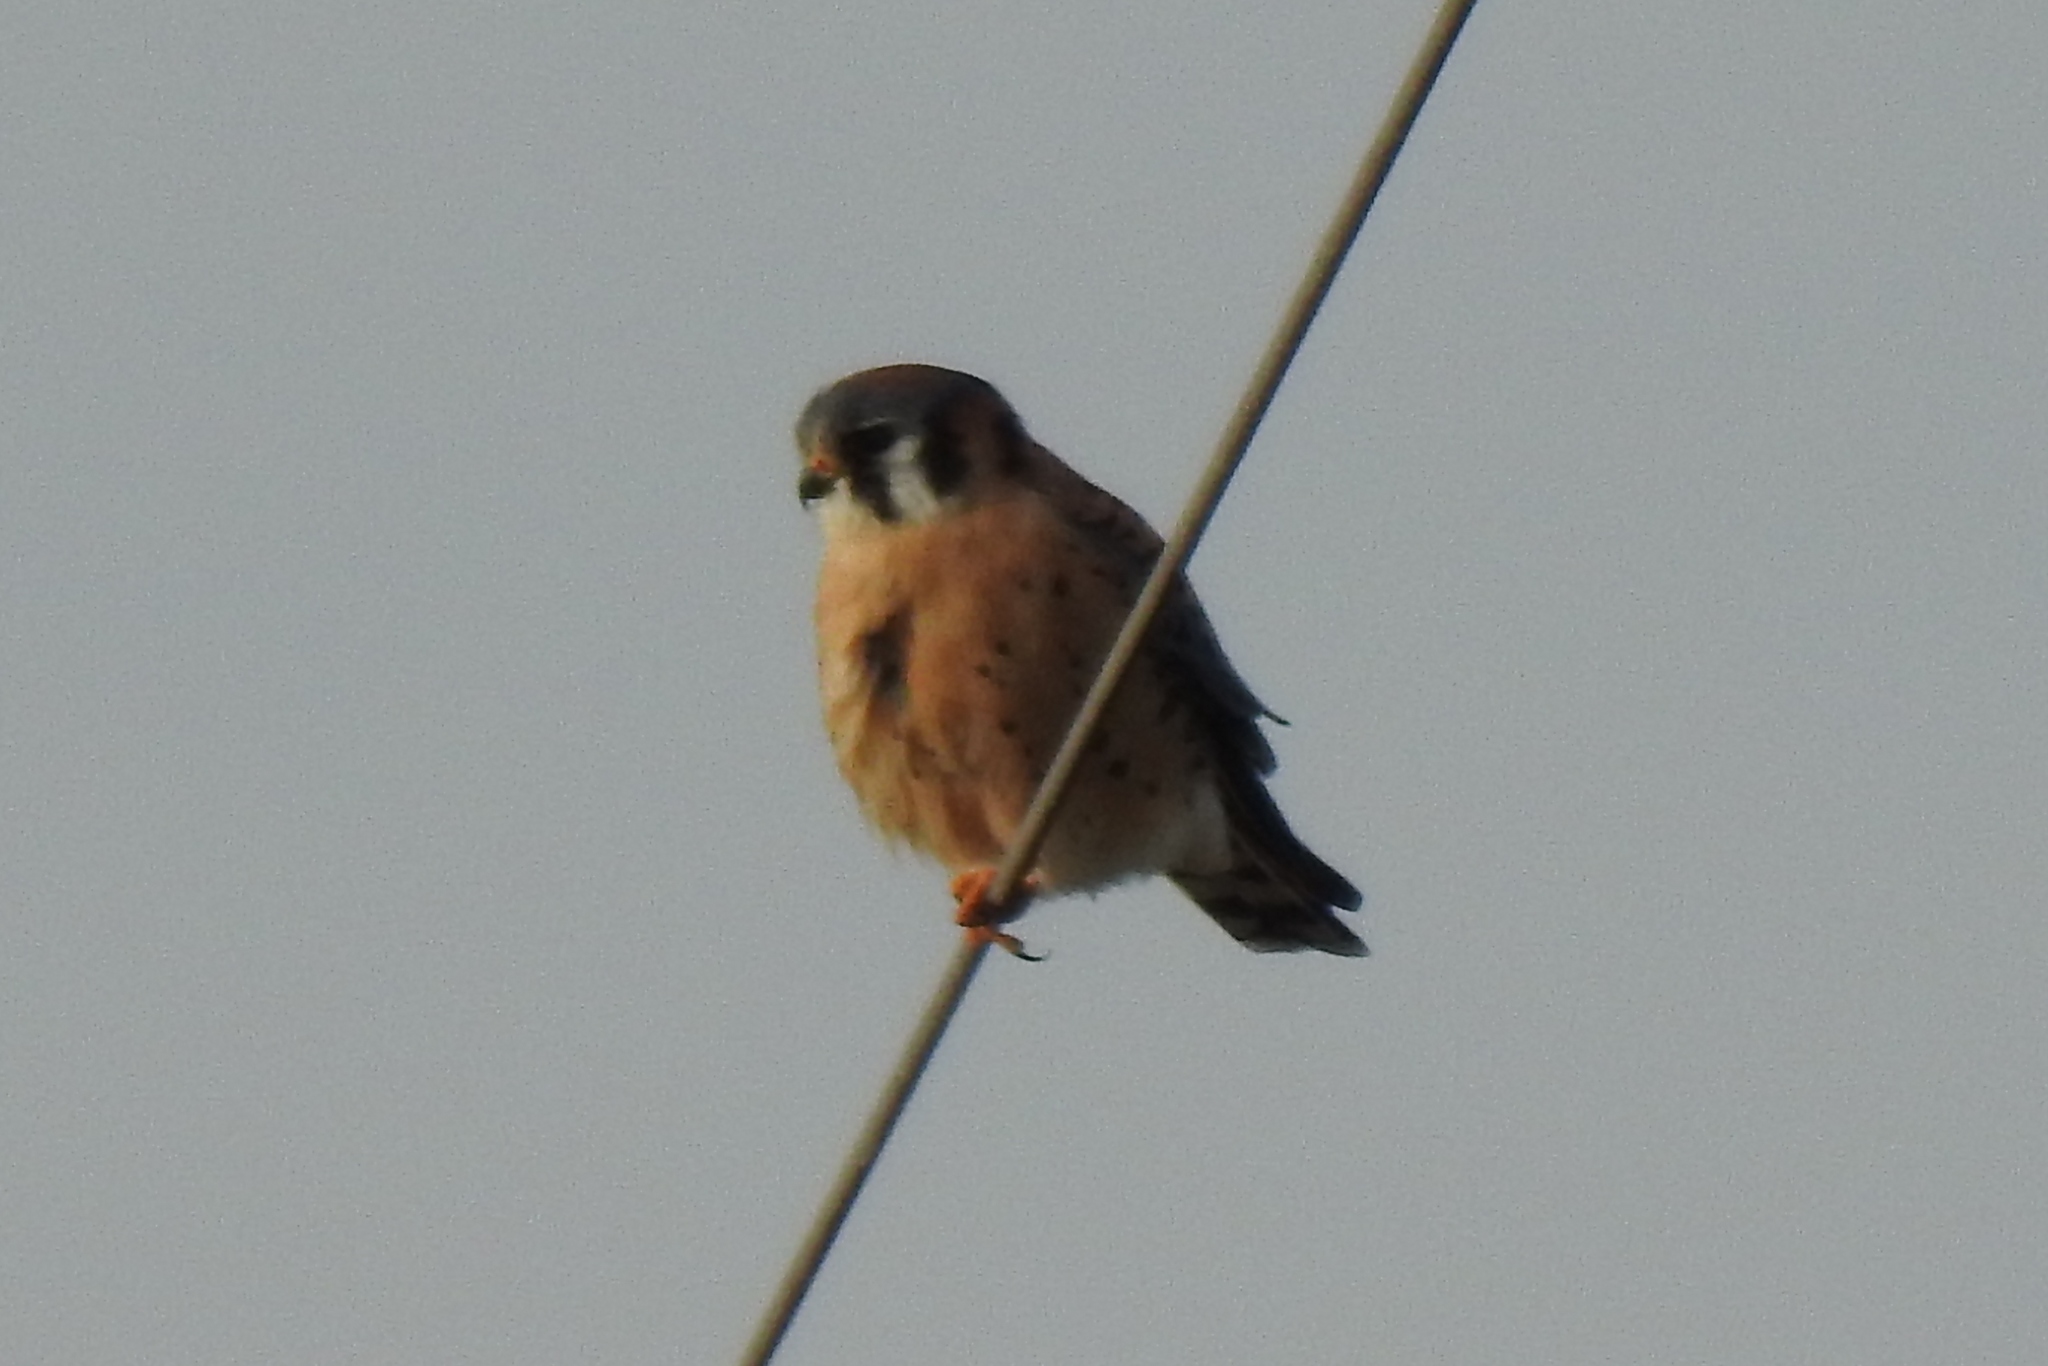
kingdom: Animalia
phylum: Chordata
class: Aves
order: Falconiformes
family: Falconidae
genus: Falco
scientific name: Falco sparverius
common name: American kestrel
